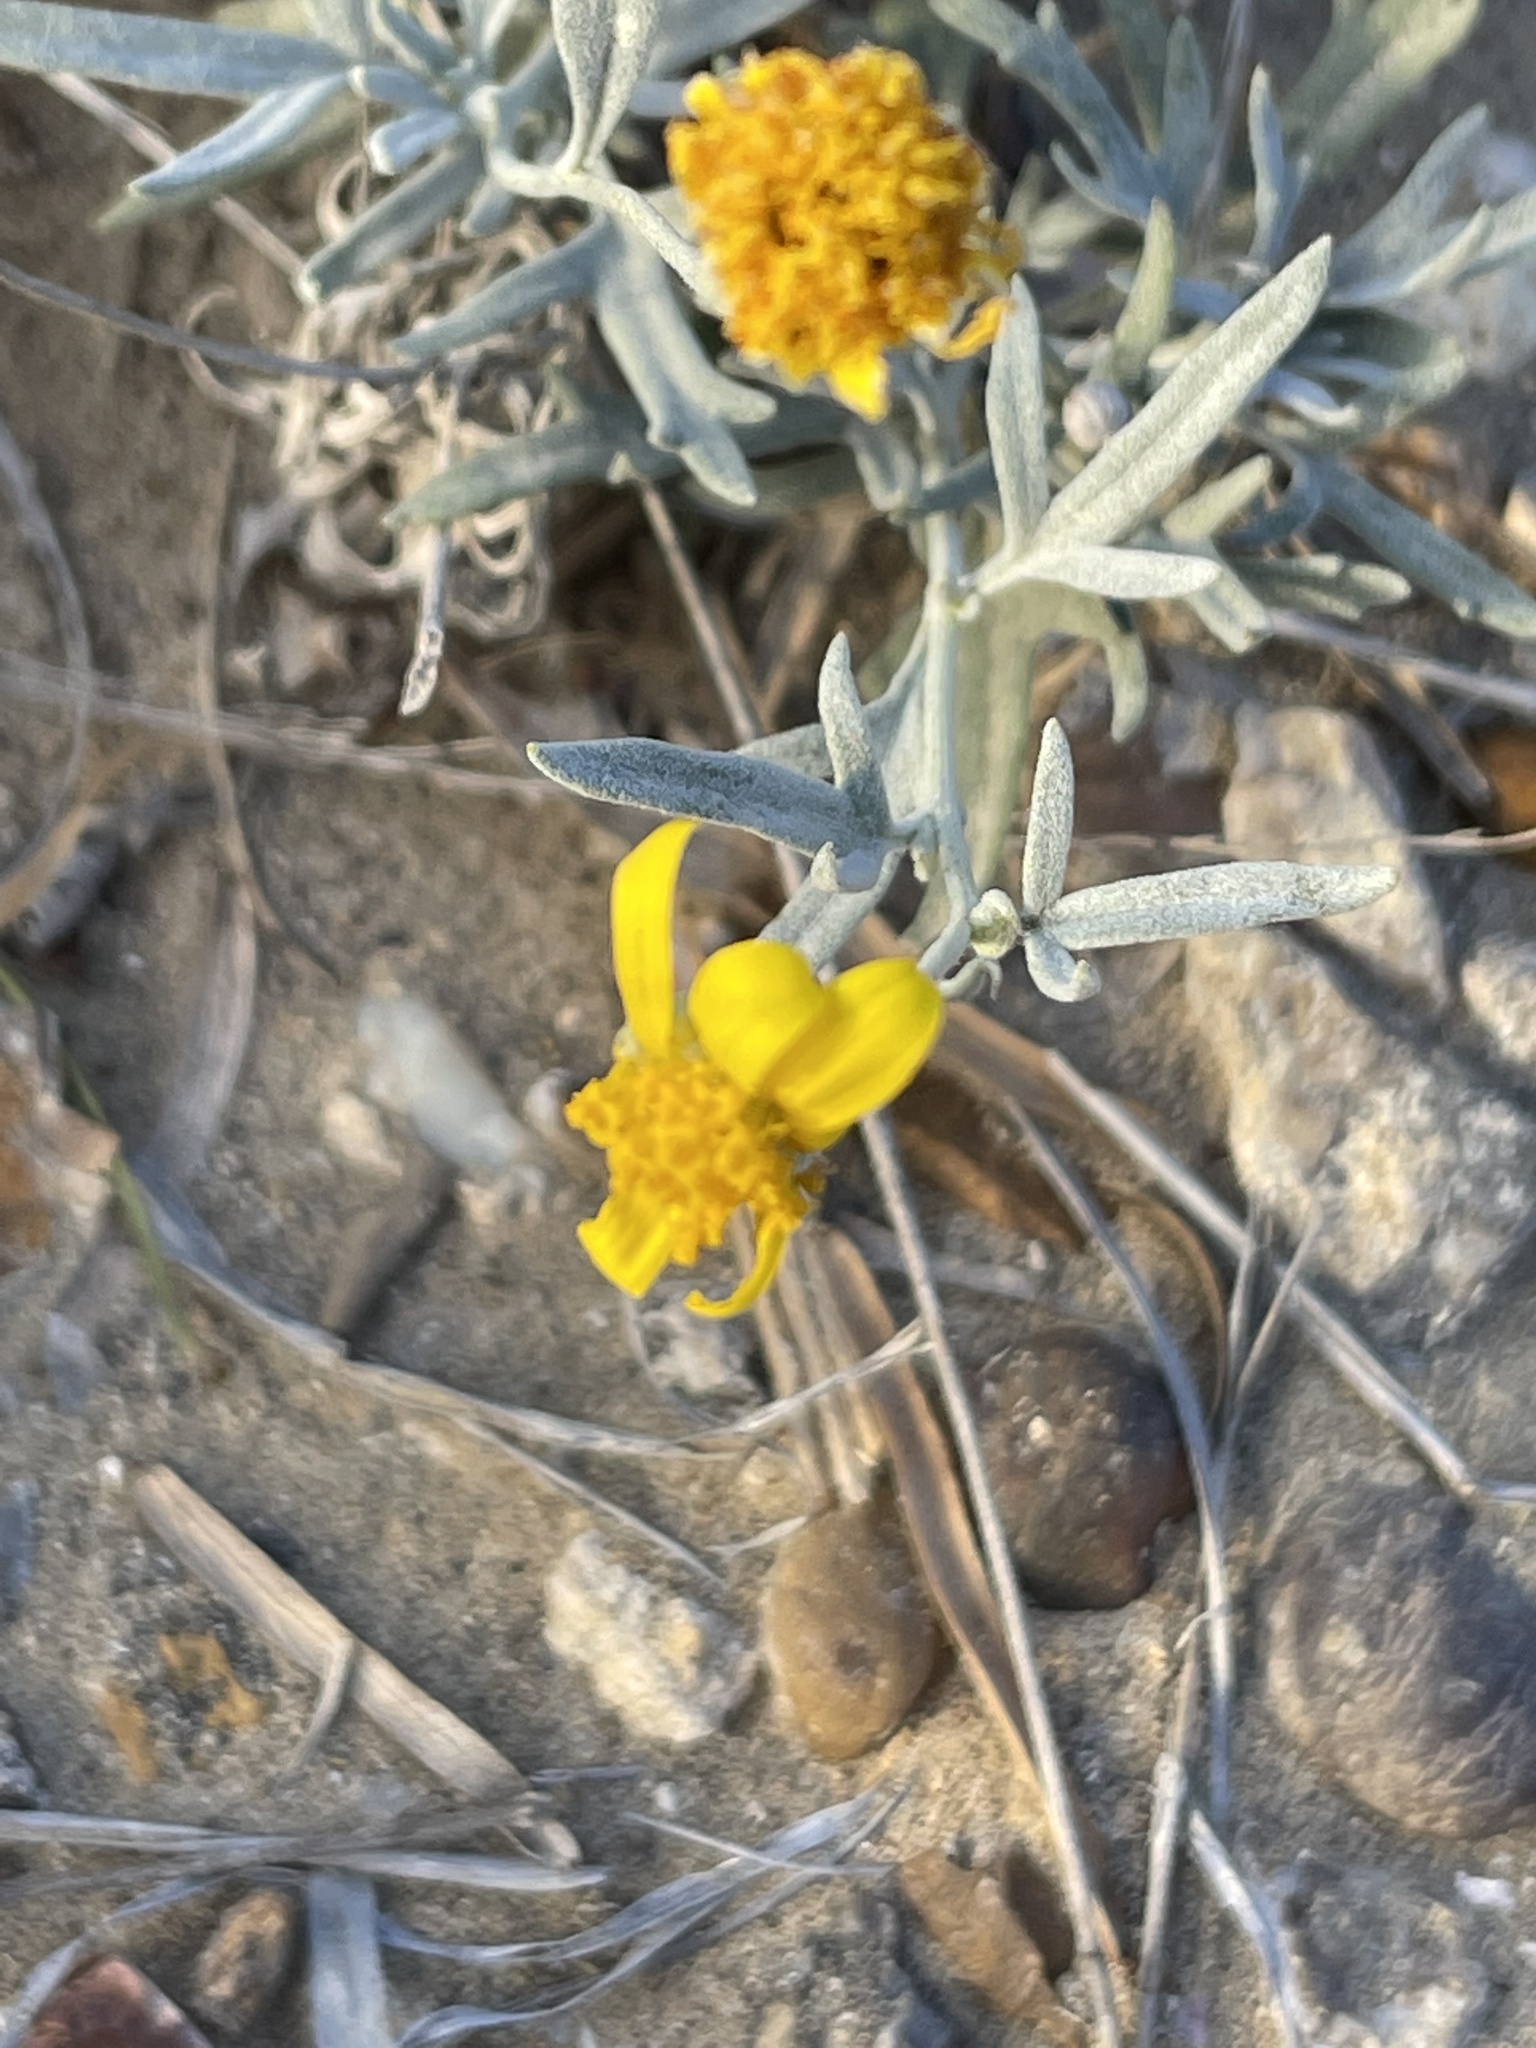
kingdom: Plantae
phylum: Tracheophyta
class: Magnoliopsida
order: Asterales
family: Asteraceae
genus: Picradeniopsis
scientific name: Picradeniopsis absinthifolia
